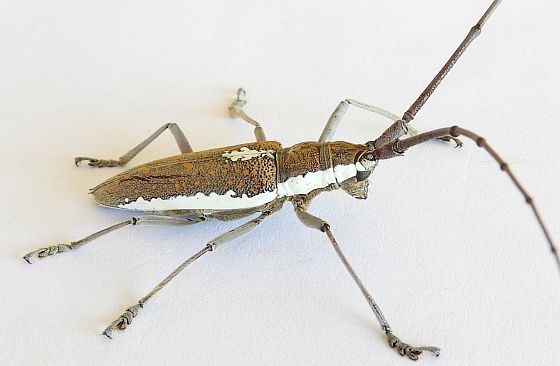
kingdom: Animalia
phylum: Arthropoda
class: Insecta
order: Coleoptera
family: Cerambycidae
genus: Neoptychodes
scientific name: Neoptychodes trilineatus
